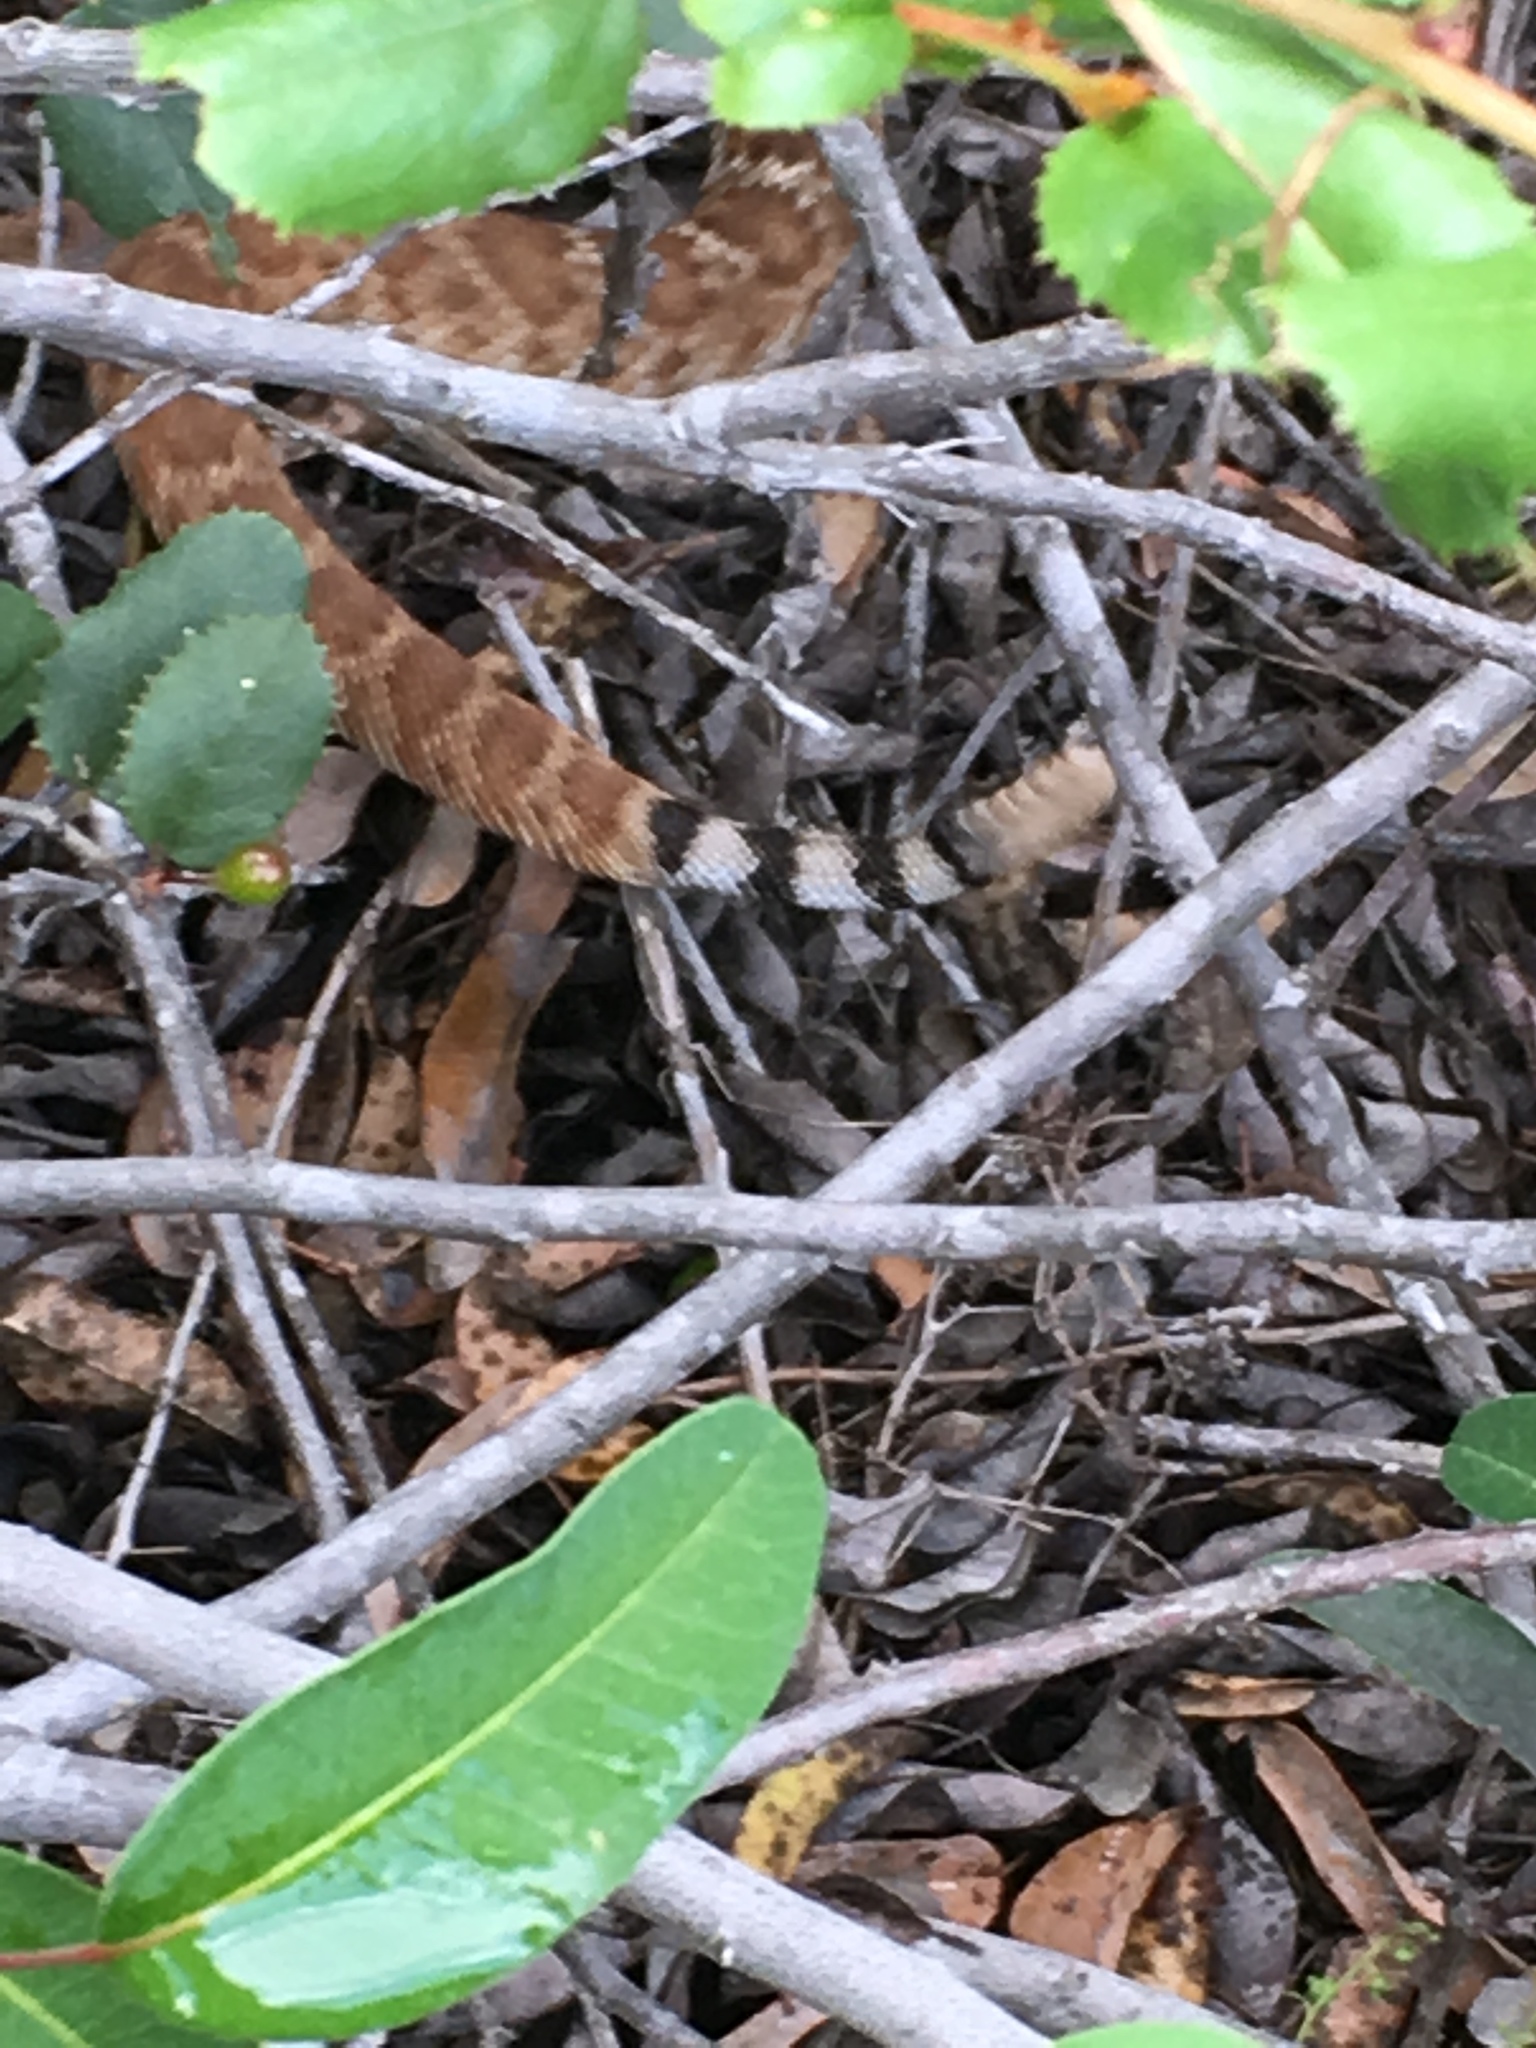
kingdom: Animalia
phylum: Chordata
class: Squamata
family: Viperidae
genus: Crotalus
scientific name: Crotalus ruber
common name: Red diamond rattlesnake
